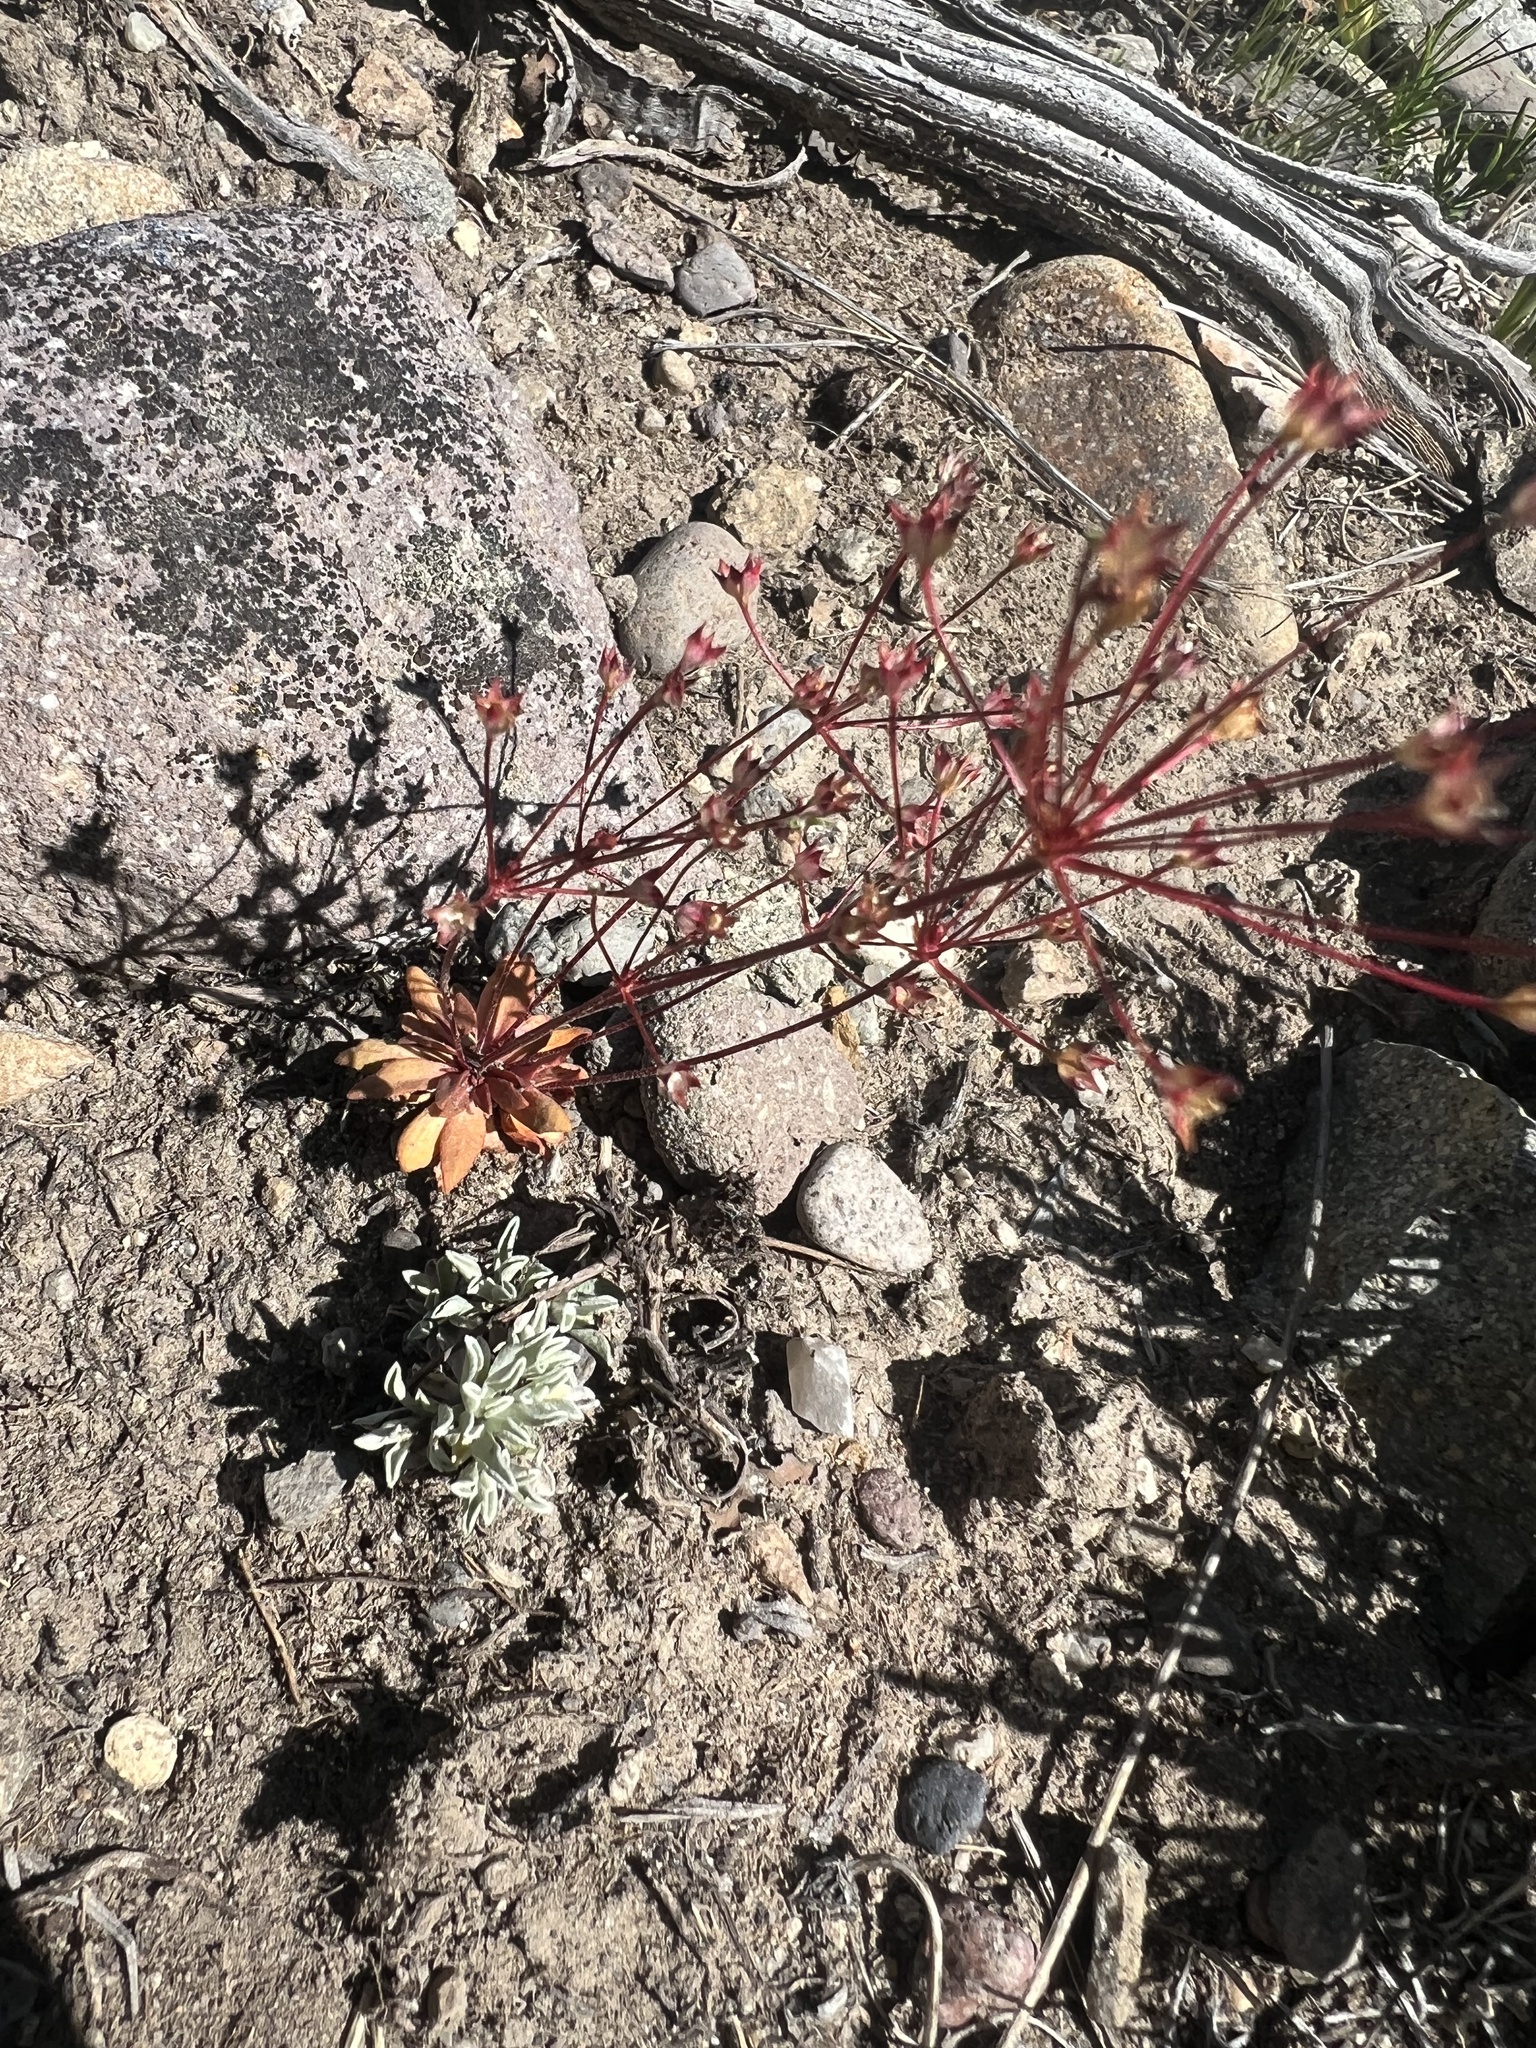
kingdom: Plantae
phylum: Tracheophyta
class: Magnoliopsida
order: Ericales
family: Primulaceae
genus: Androsace
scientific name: Androsace occidentalis
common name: West rock-jasmine
